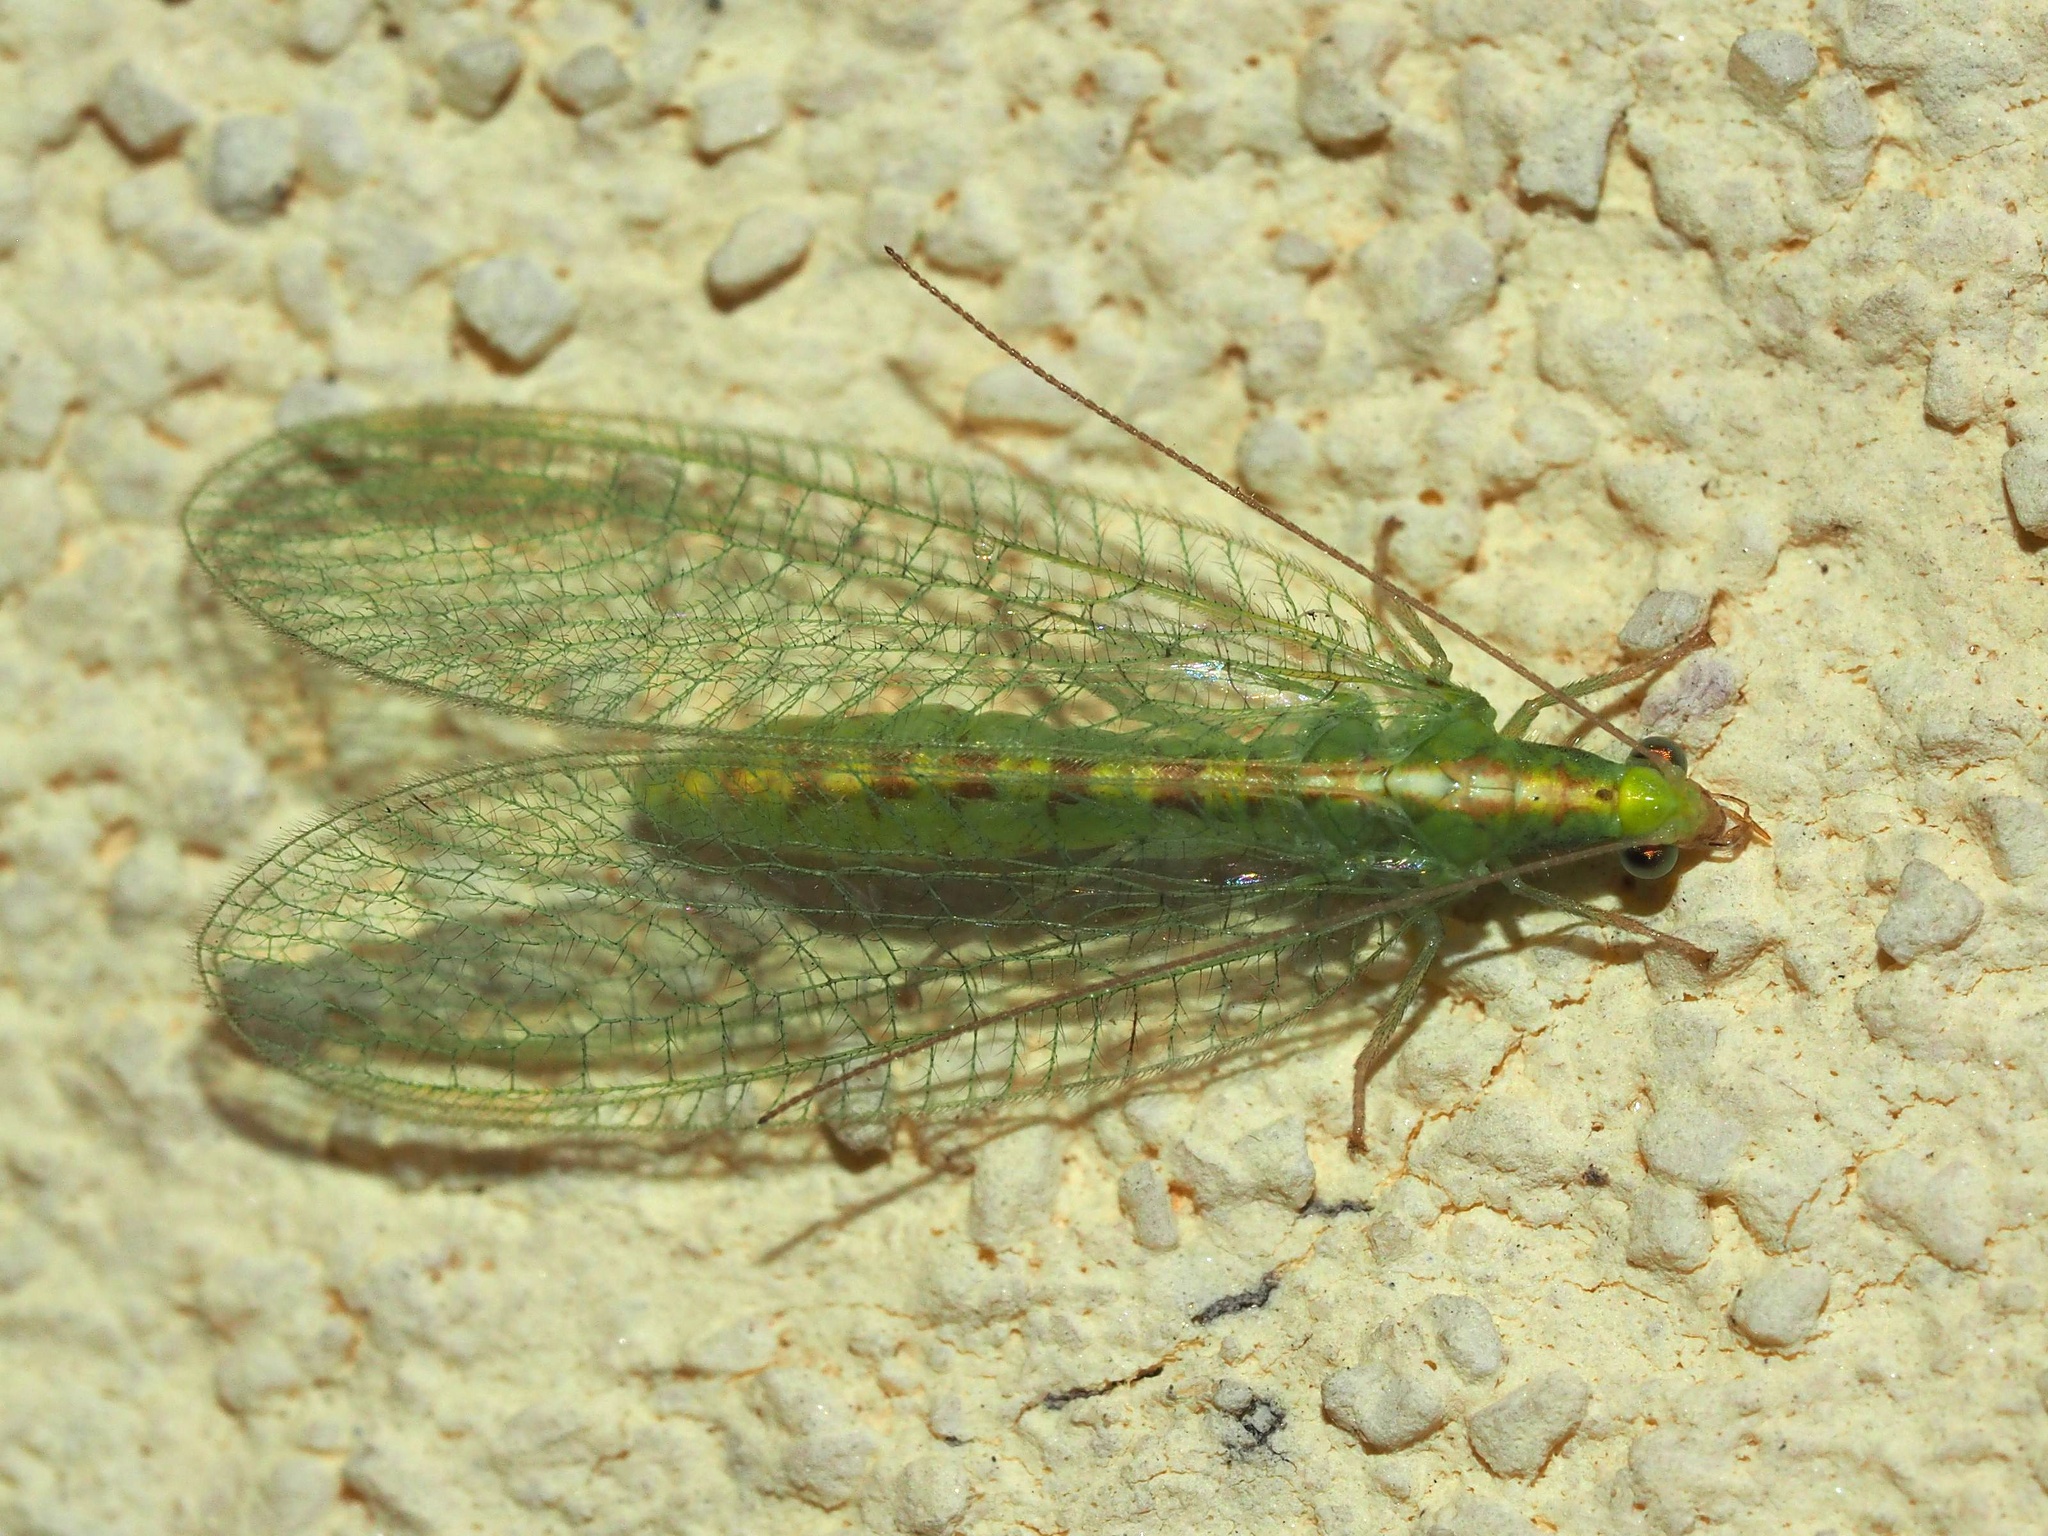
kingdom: Animalia
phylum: Arthropoda
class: Insecta
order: Neuroptera
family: Chrysopidae
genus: Chrysoperla
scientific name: Chrysoperla
